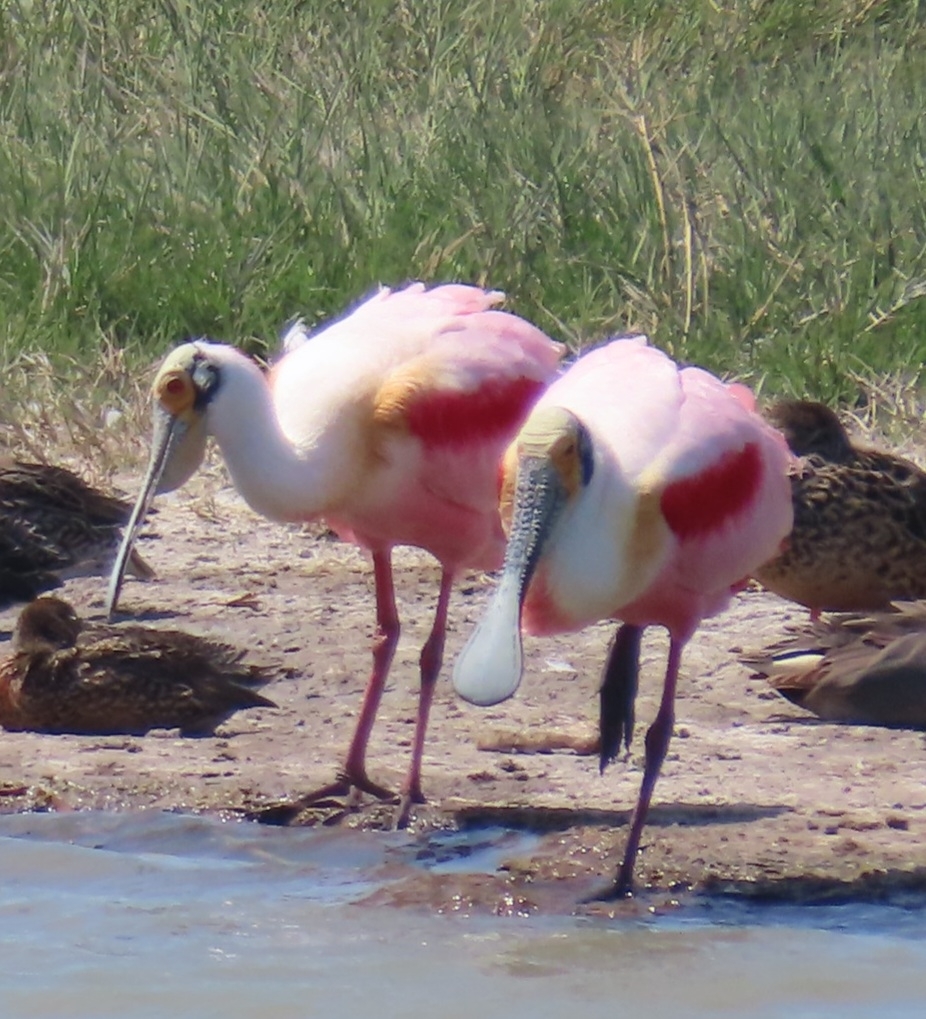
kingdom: Animalia
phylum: Chordata
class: Aves
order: Pelecaniformes
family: Threskiornithidae
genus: Platalea
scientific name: Platalea ajaja
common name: Roseate spoonbill
